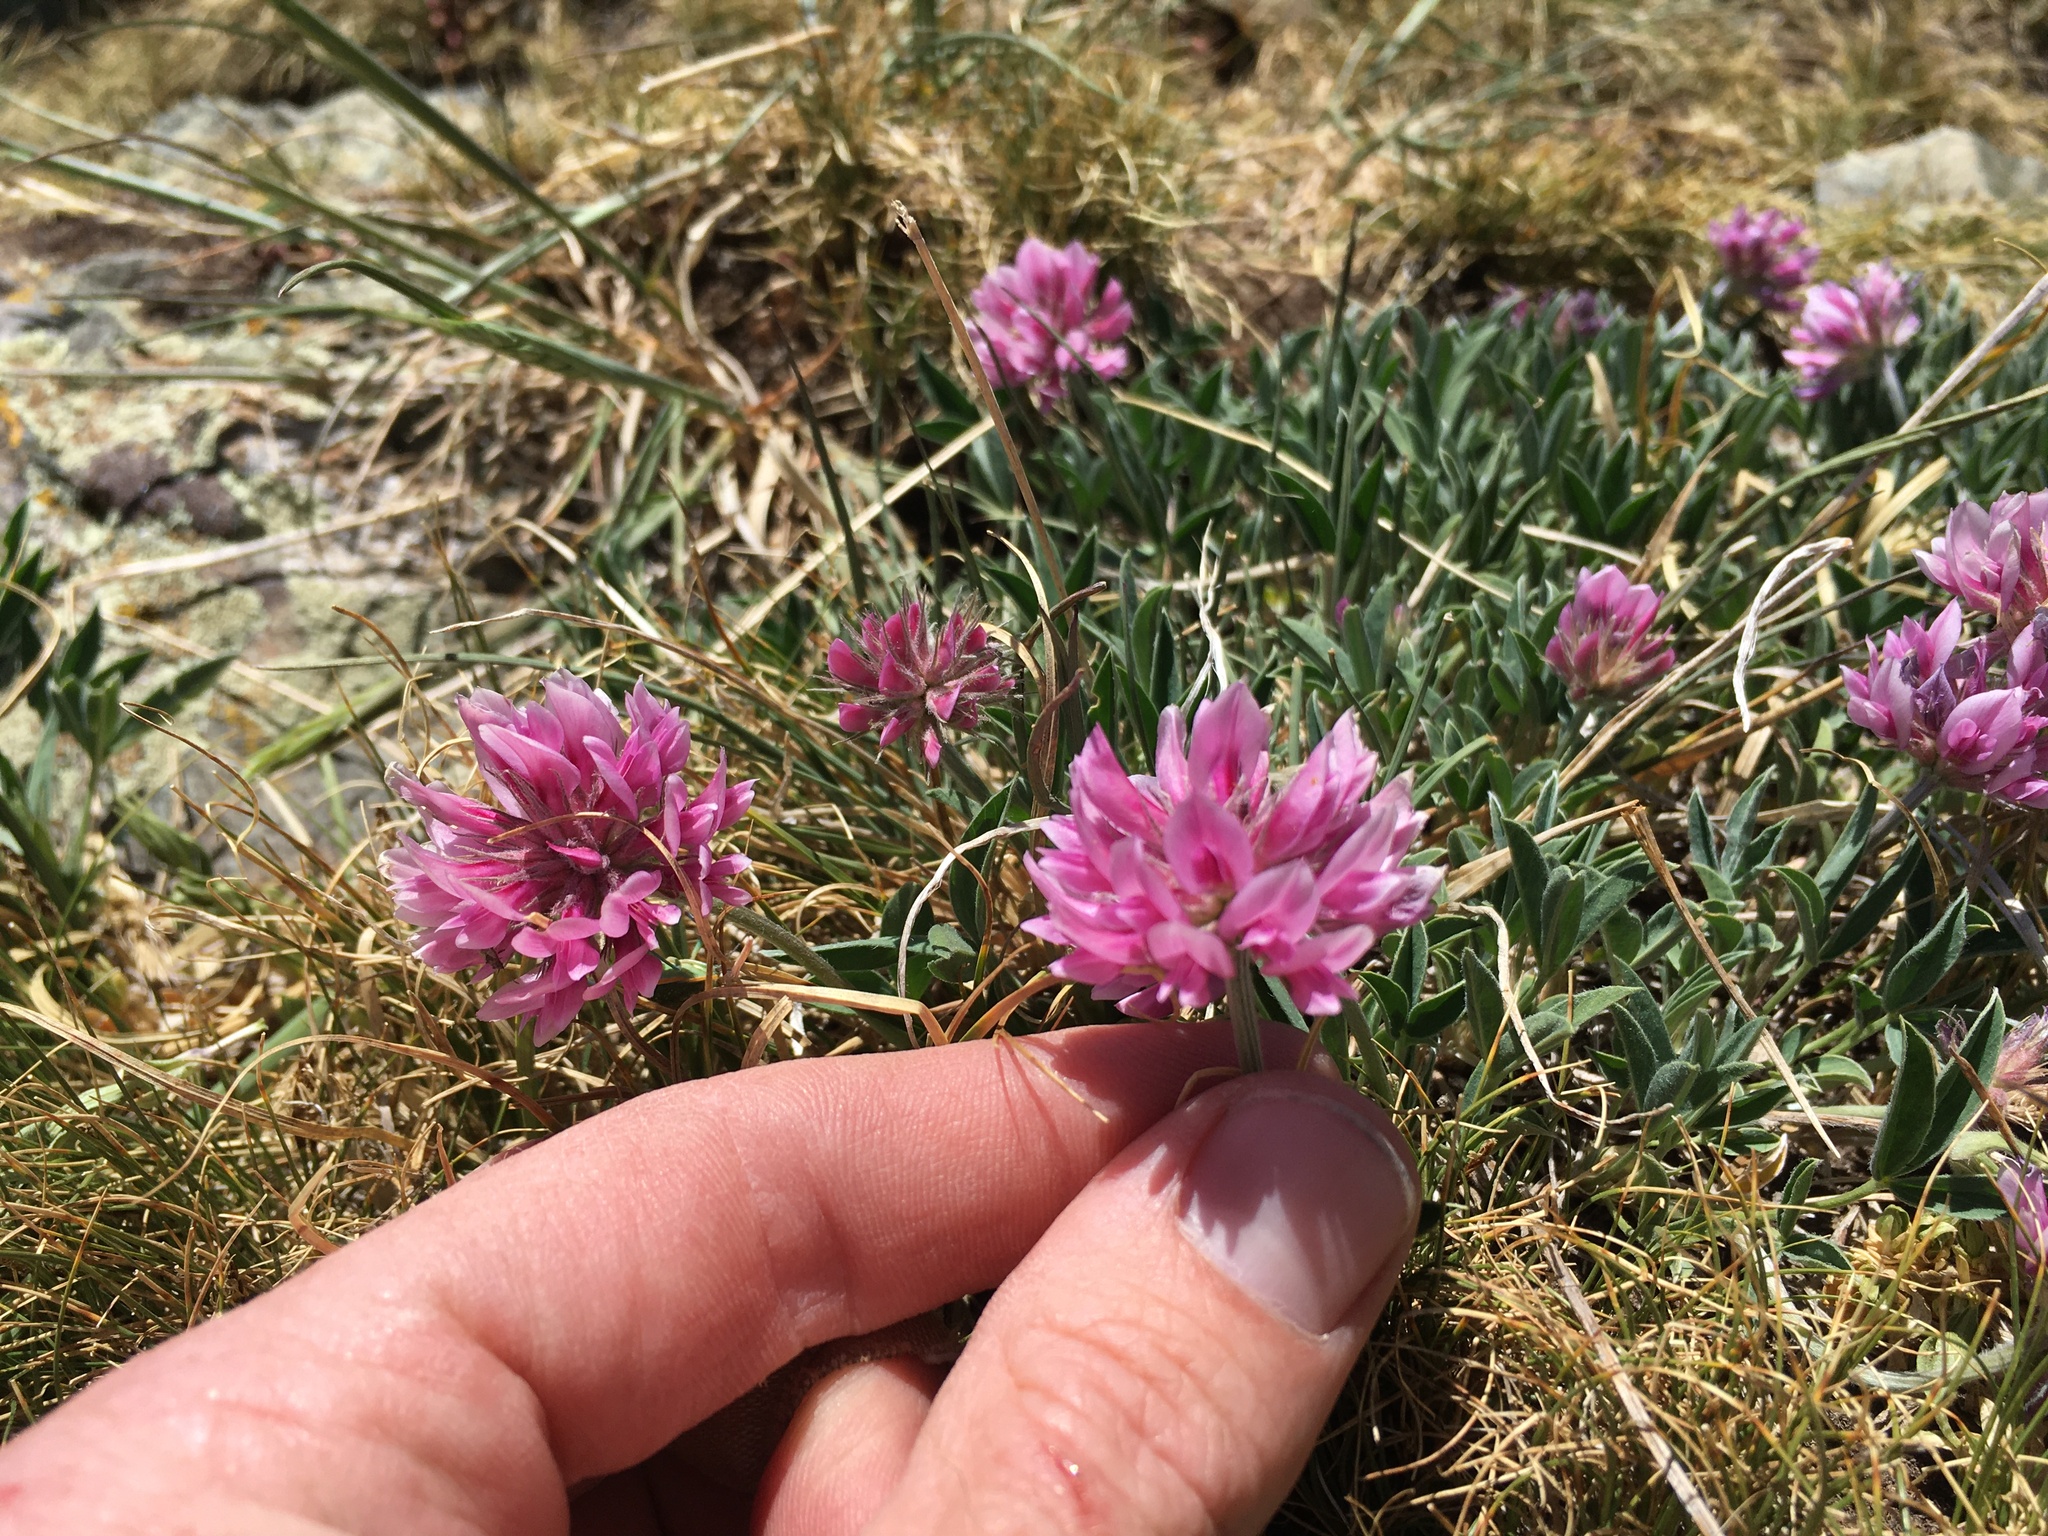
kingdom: Plantae
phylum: Tracheophyta
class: Magnoliopsida
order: Fabales
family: Fabaceae
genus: Trifolium
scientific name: Trifolium attenuatum
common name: Rocky mountain clover
